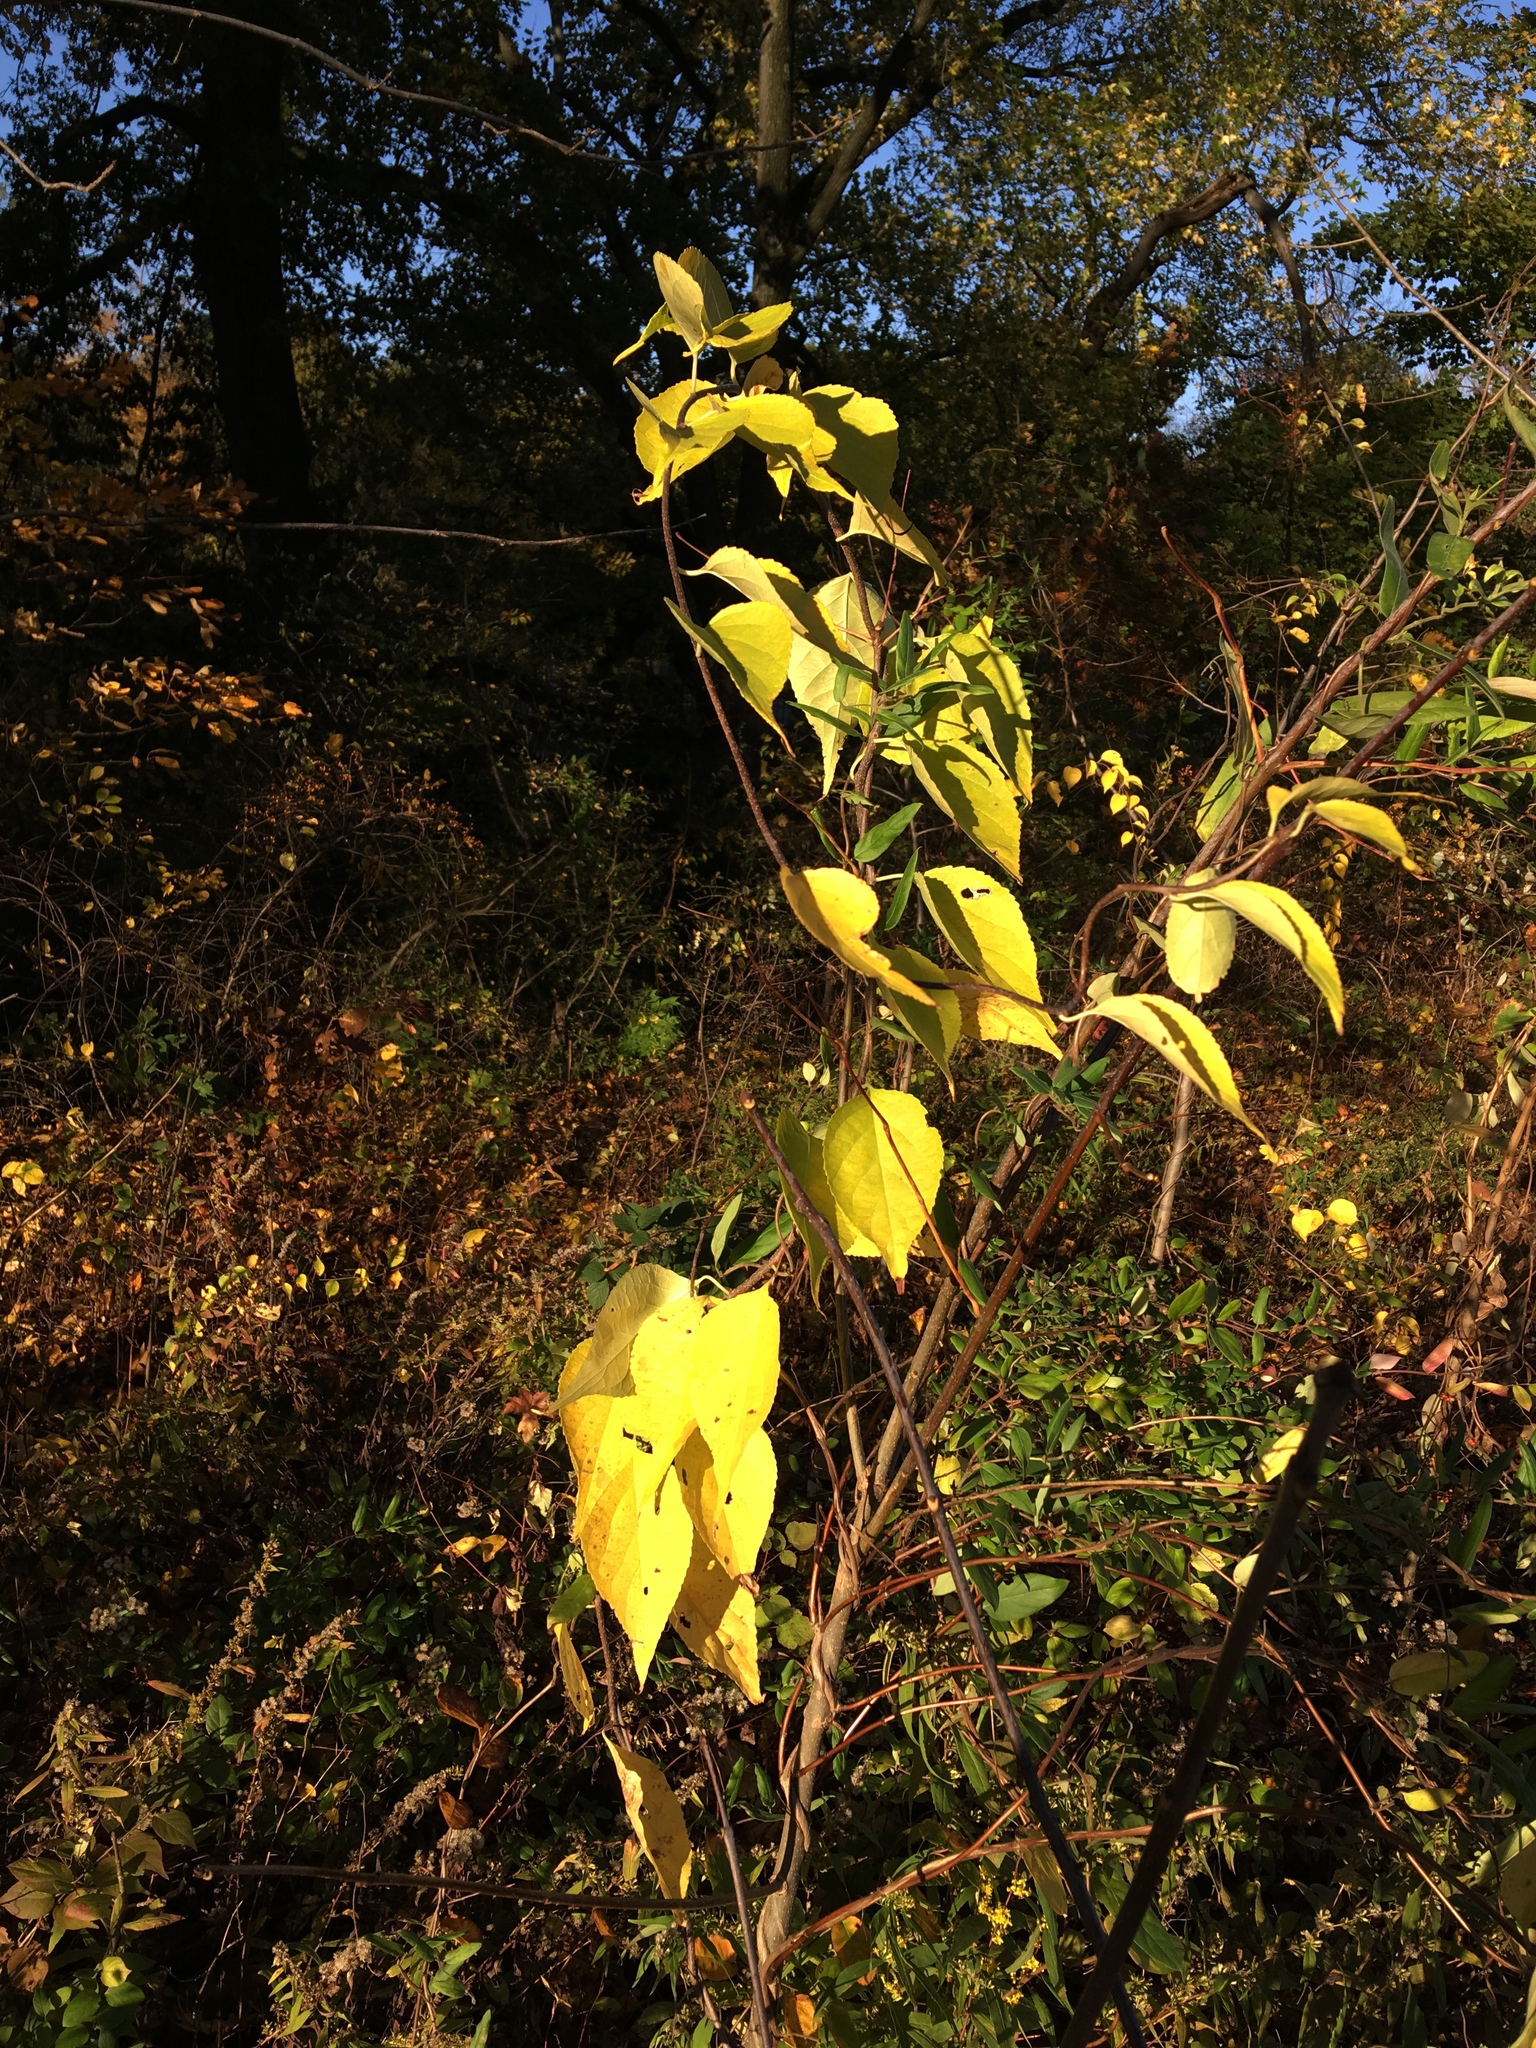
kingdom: Plantae
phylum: Tracheophyta
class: Magnoliopsida
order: Celastrales
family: Celastraceae
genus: Celastrus
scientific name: Celastrus orbiculatus
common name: Oriental bittersweet
